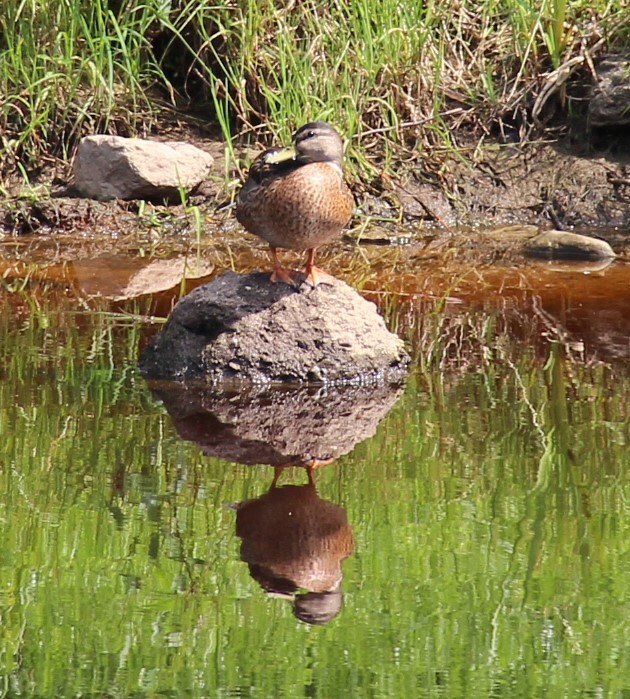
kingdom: Animalia
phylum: Chordata
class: Aves
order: Anseriformes
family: Anatidae
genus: Anas
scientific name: Anas platyrhynchos
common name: Mallard
